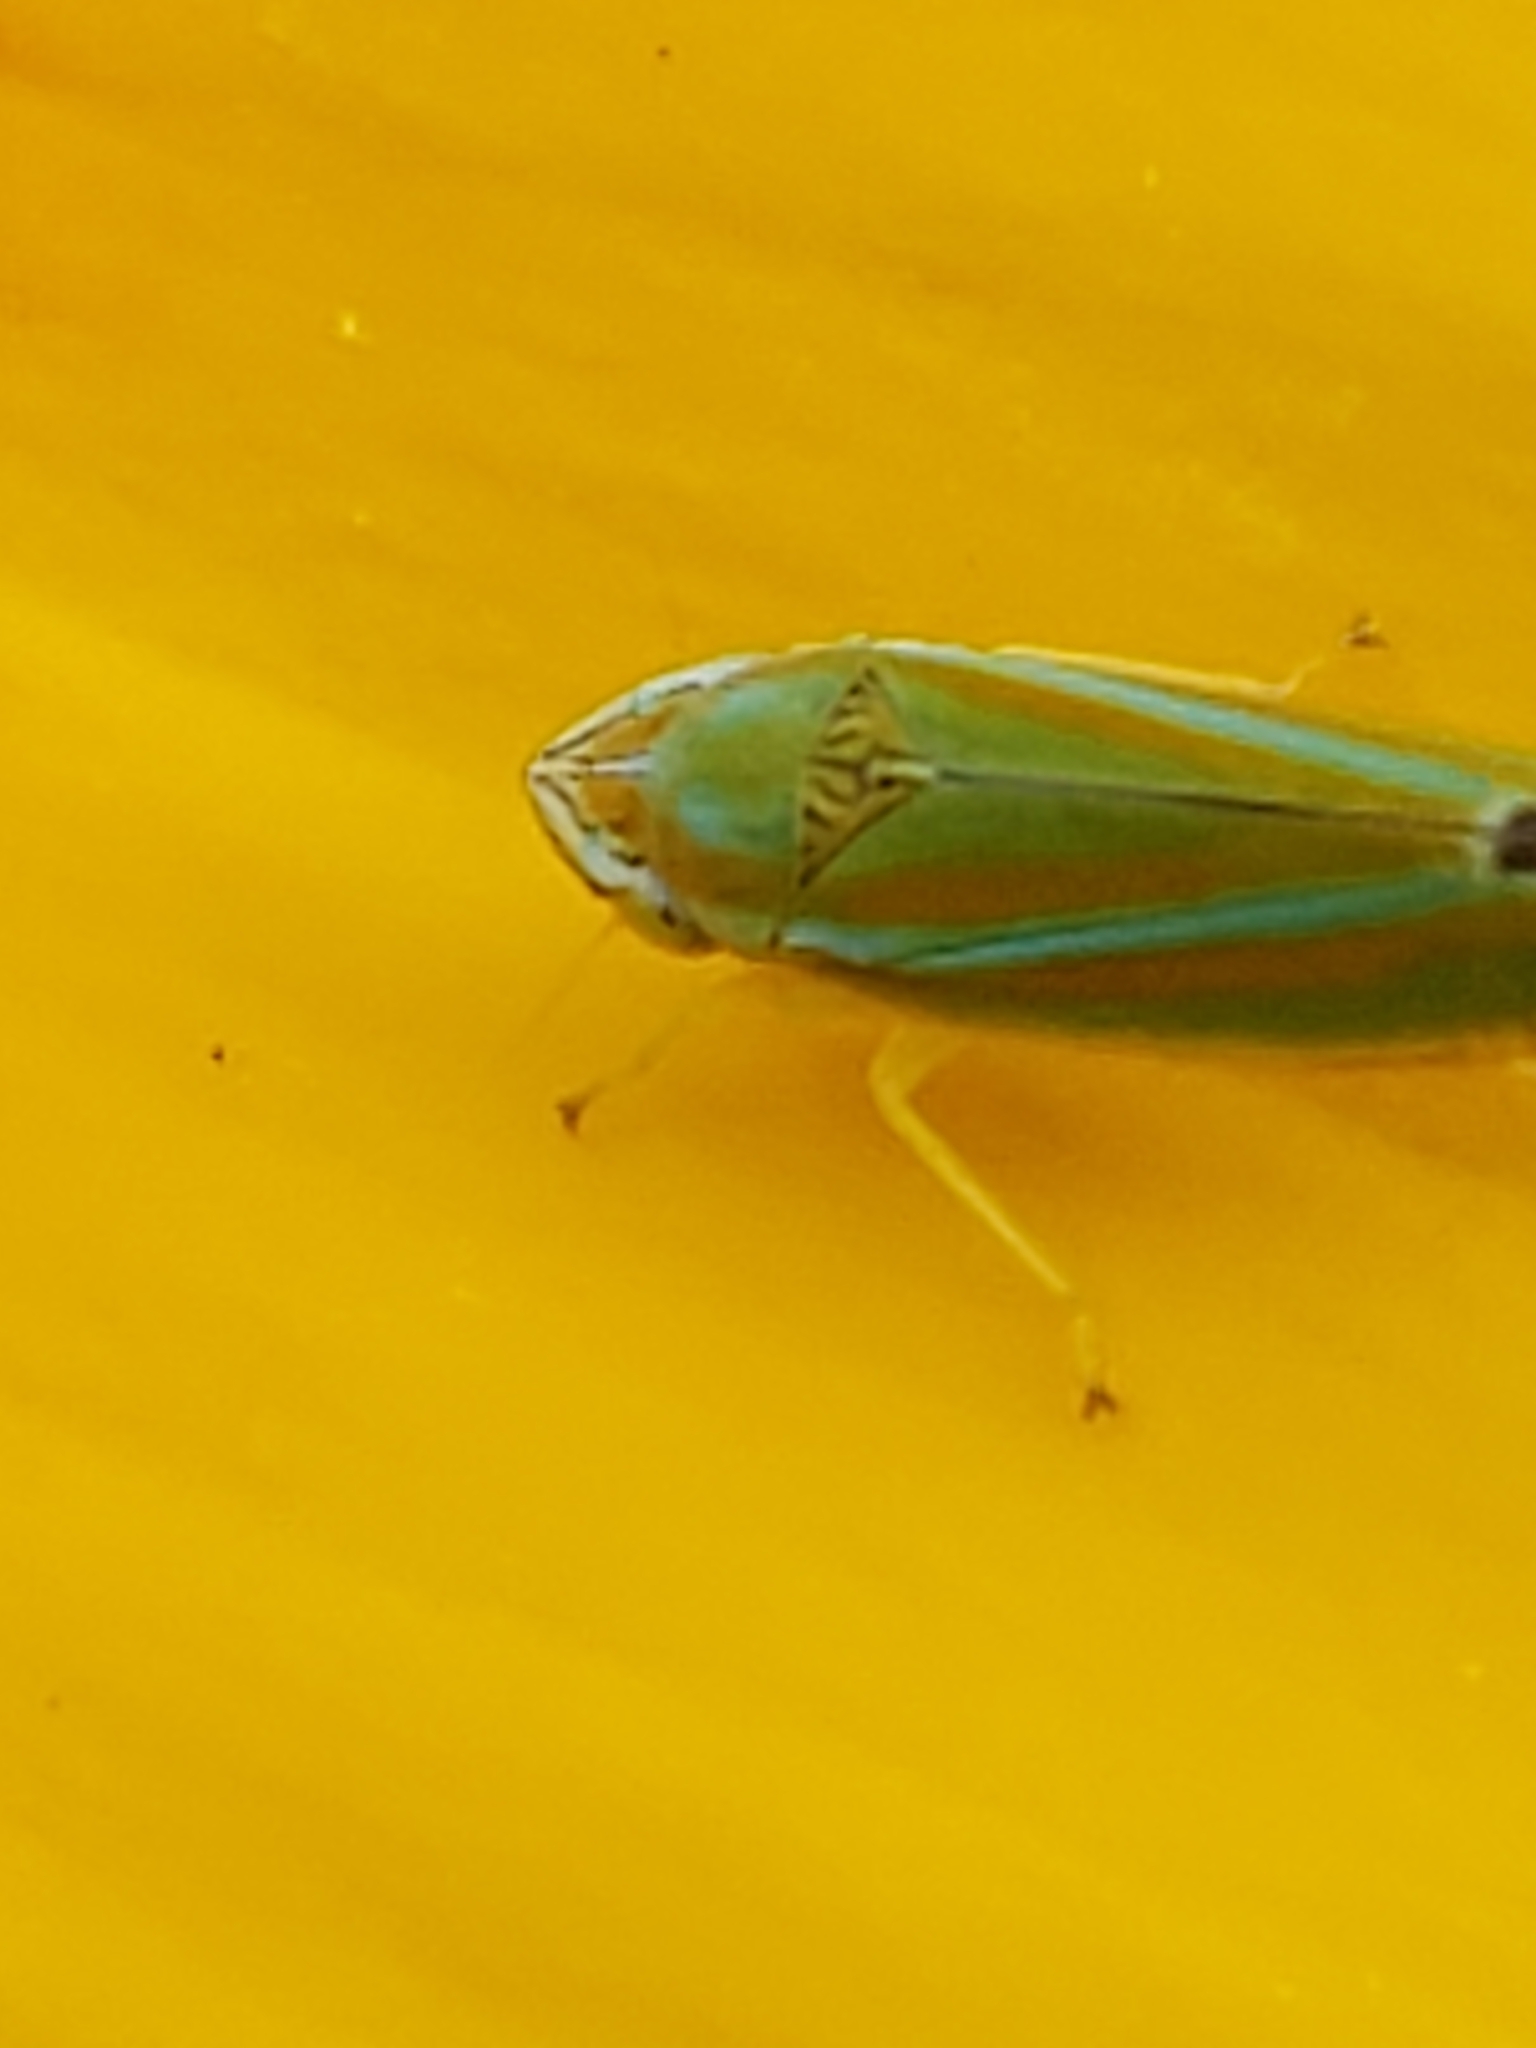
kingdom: Animalia
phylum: Arthropoda
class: Insecta
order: Hemiptera
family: Cicadellidae
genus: Graphocephala
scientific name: Graphocephala versuta
